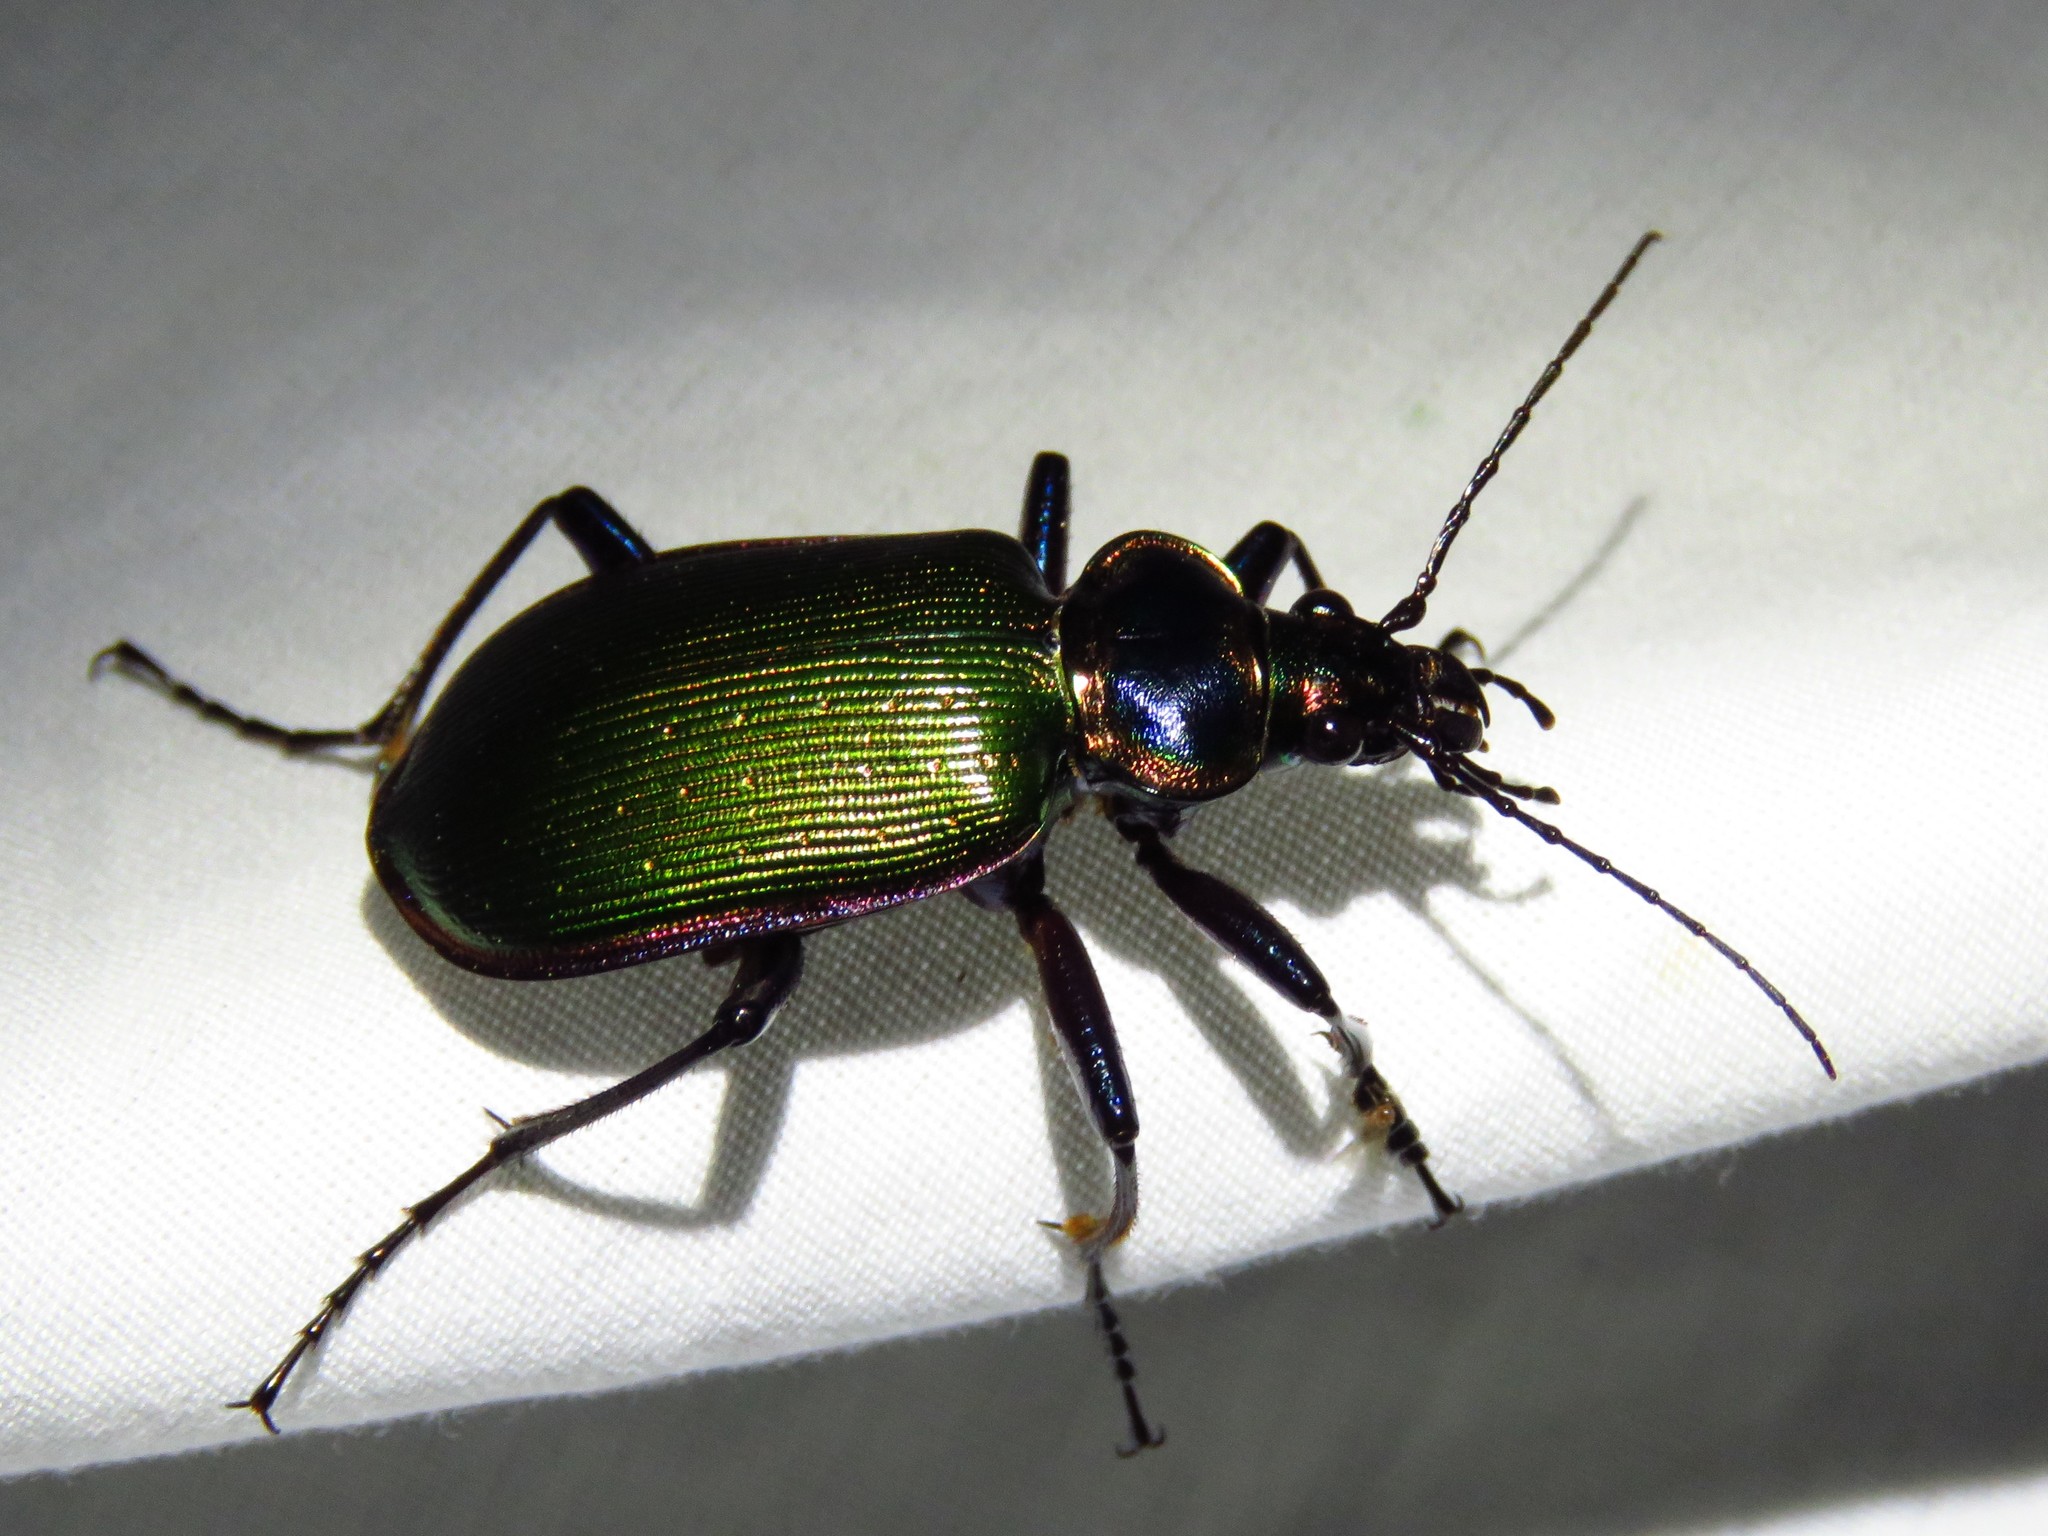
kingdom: Animalia
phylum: Arthropoda
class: Insecta
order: Coleoptera
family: Carabidae
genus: Calosoma
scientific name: Calosoma scrutator
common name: Fiery searcher beetle
